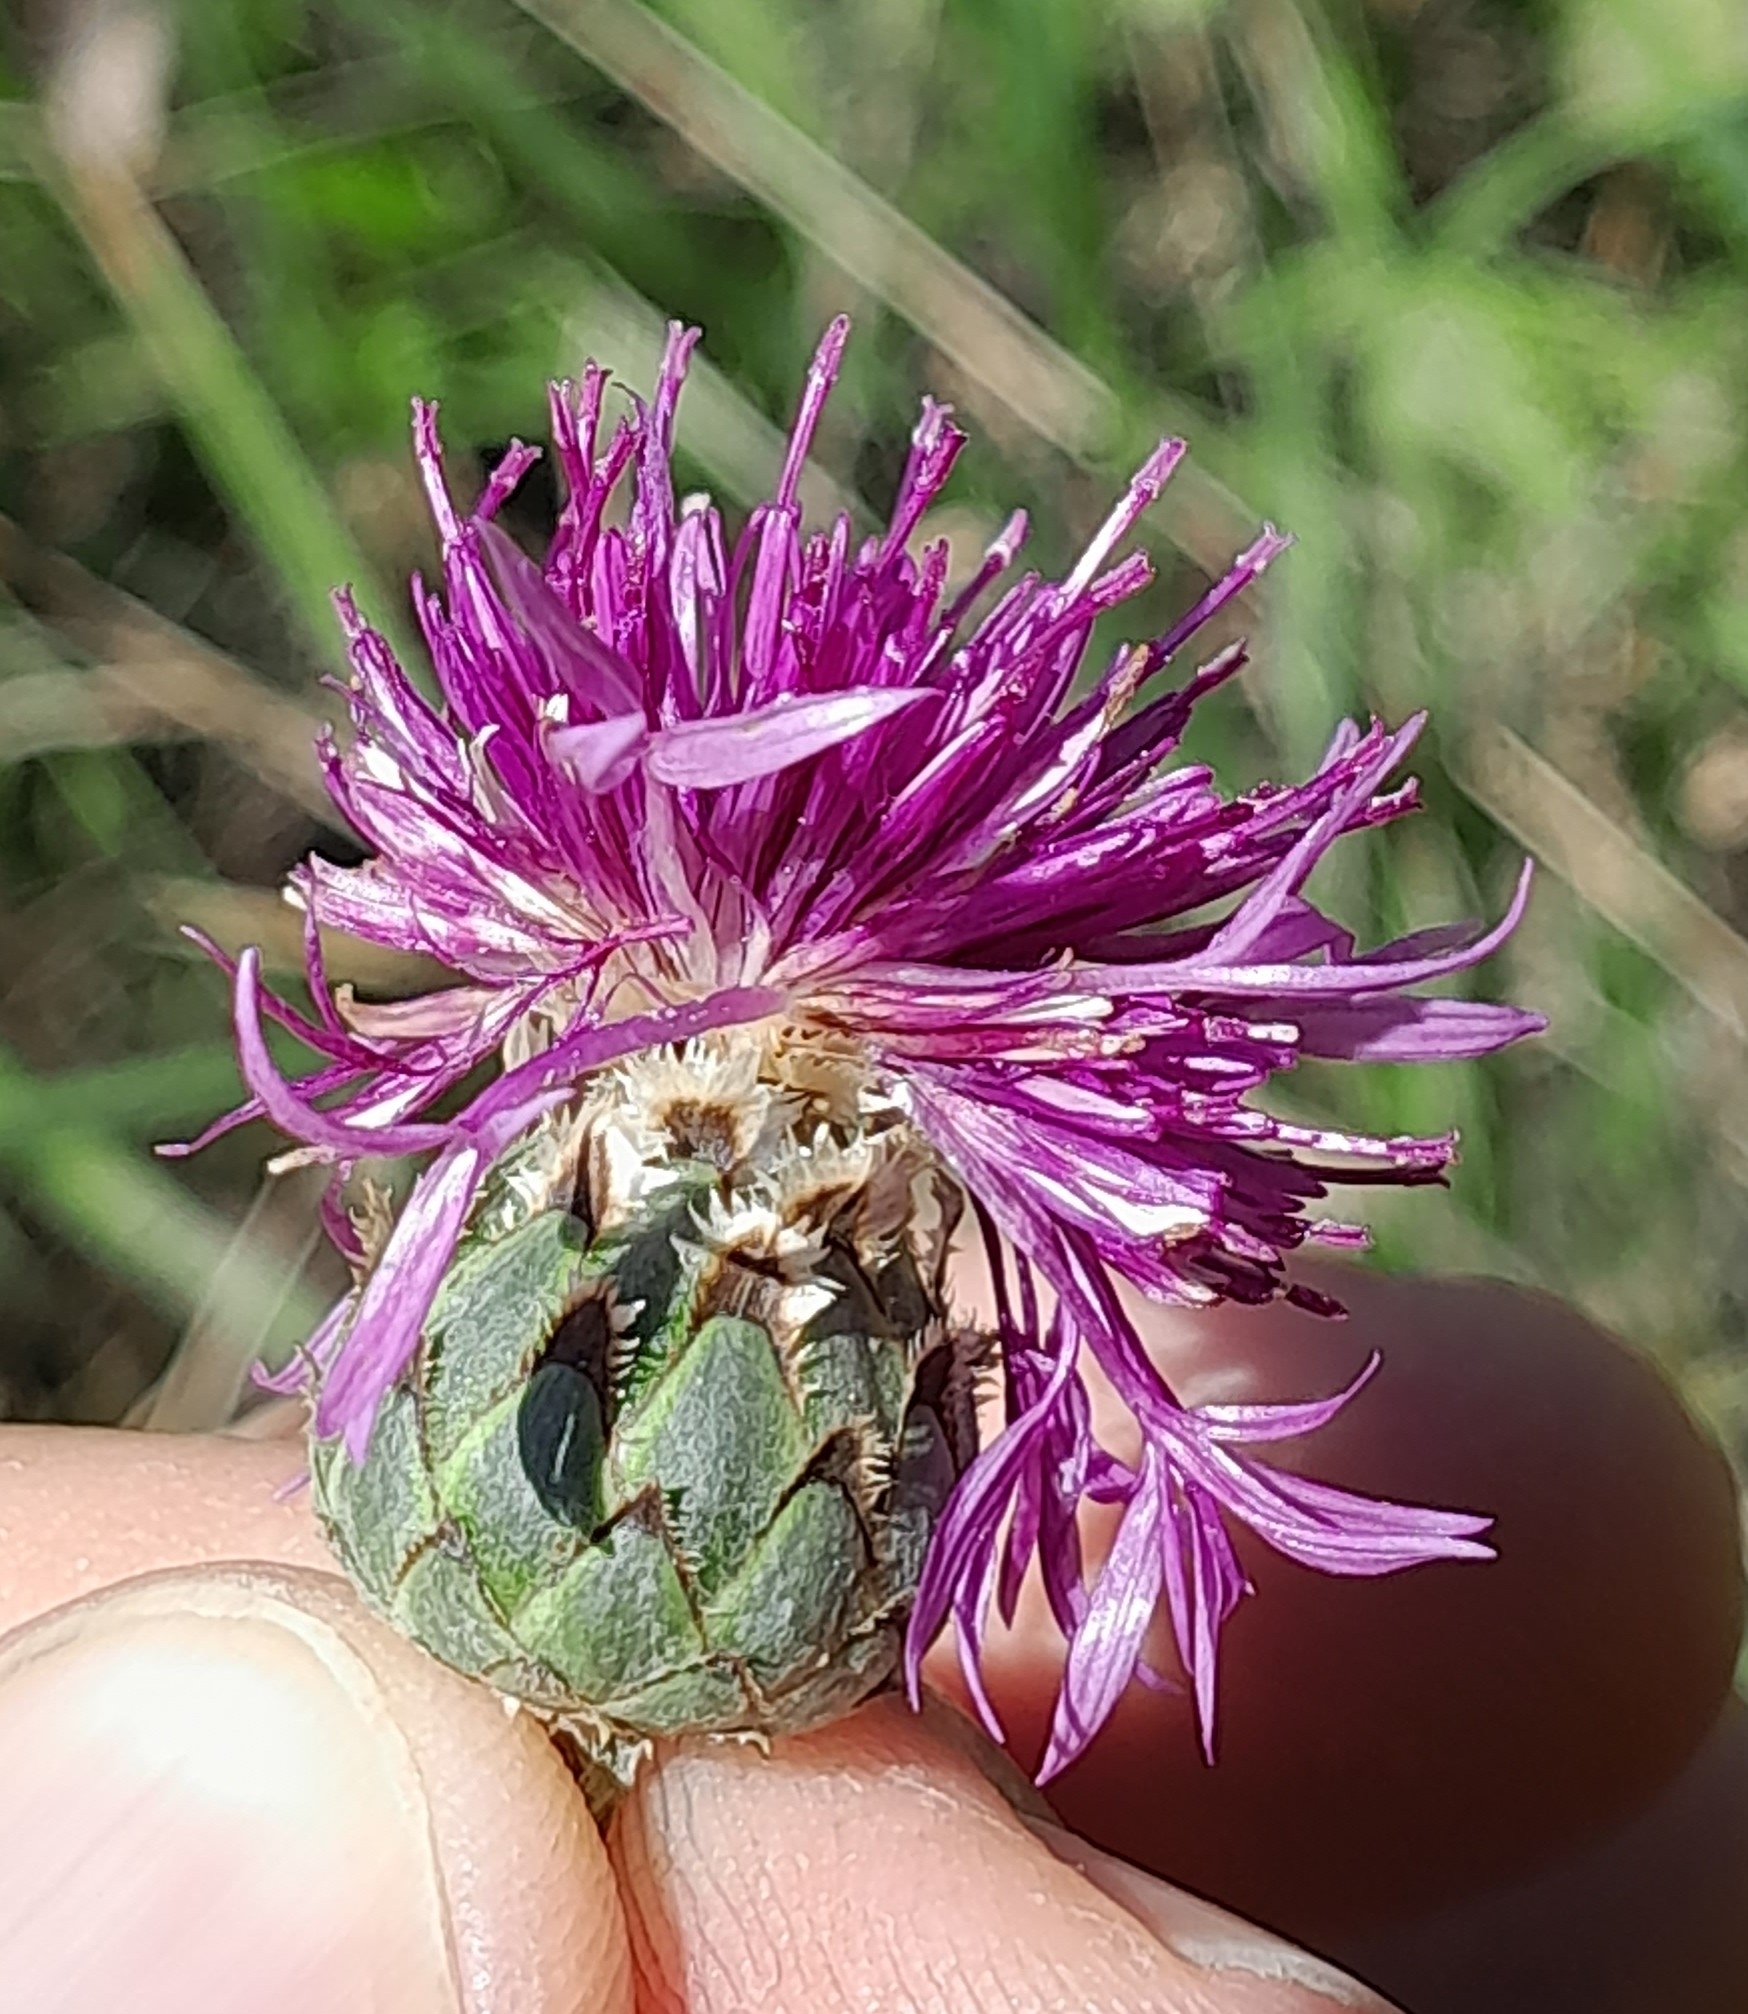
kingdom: Plantae
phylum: Tracheophyta
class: Magnoliopsida
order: Asterales
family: Asteraceae
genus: Centaurea
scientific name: Centaurea sadleriana
